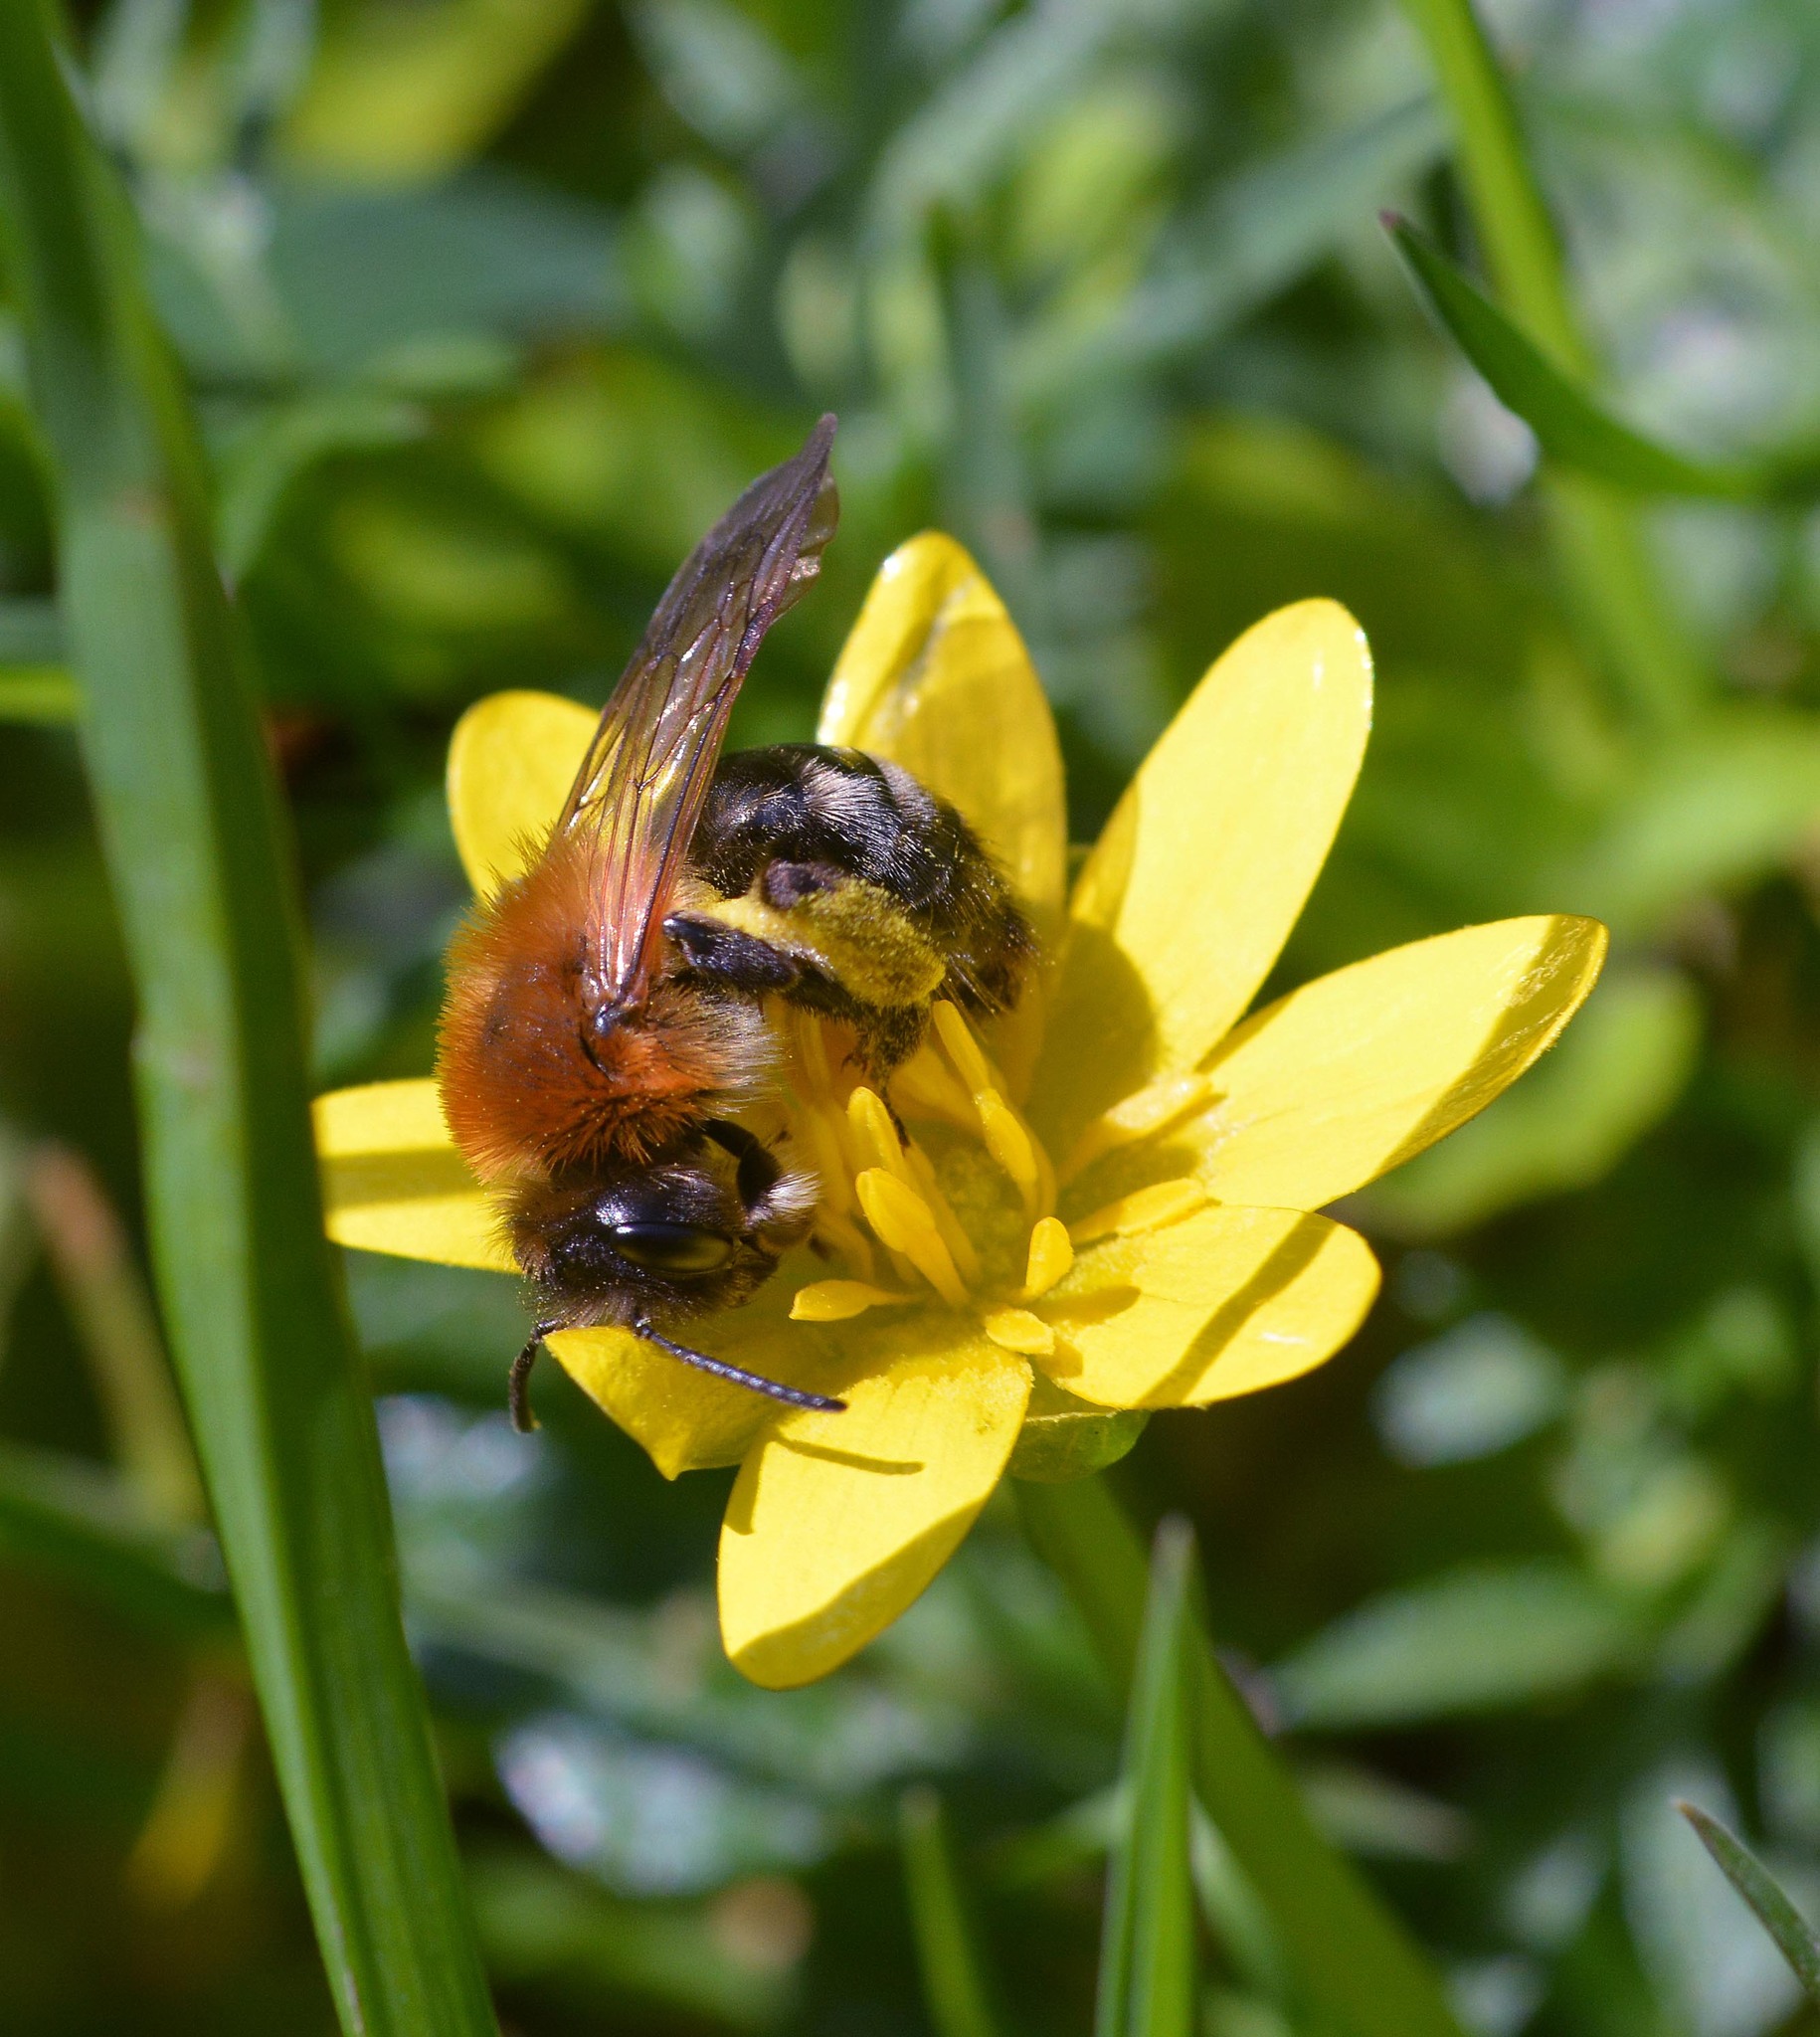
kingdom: Animalia
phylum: Arthropoda
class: Insecta
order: Hymenoptera
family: Andrenidae
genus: Andrena
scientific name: Andrena nitida
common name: Grey-patched mining bee
